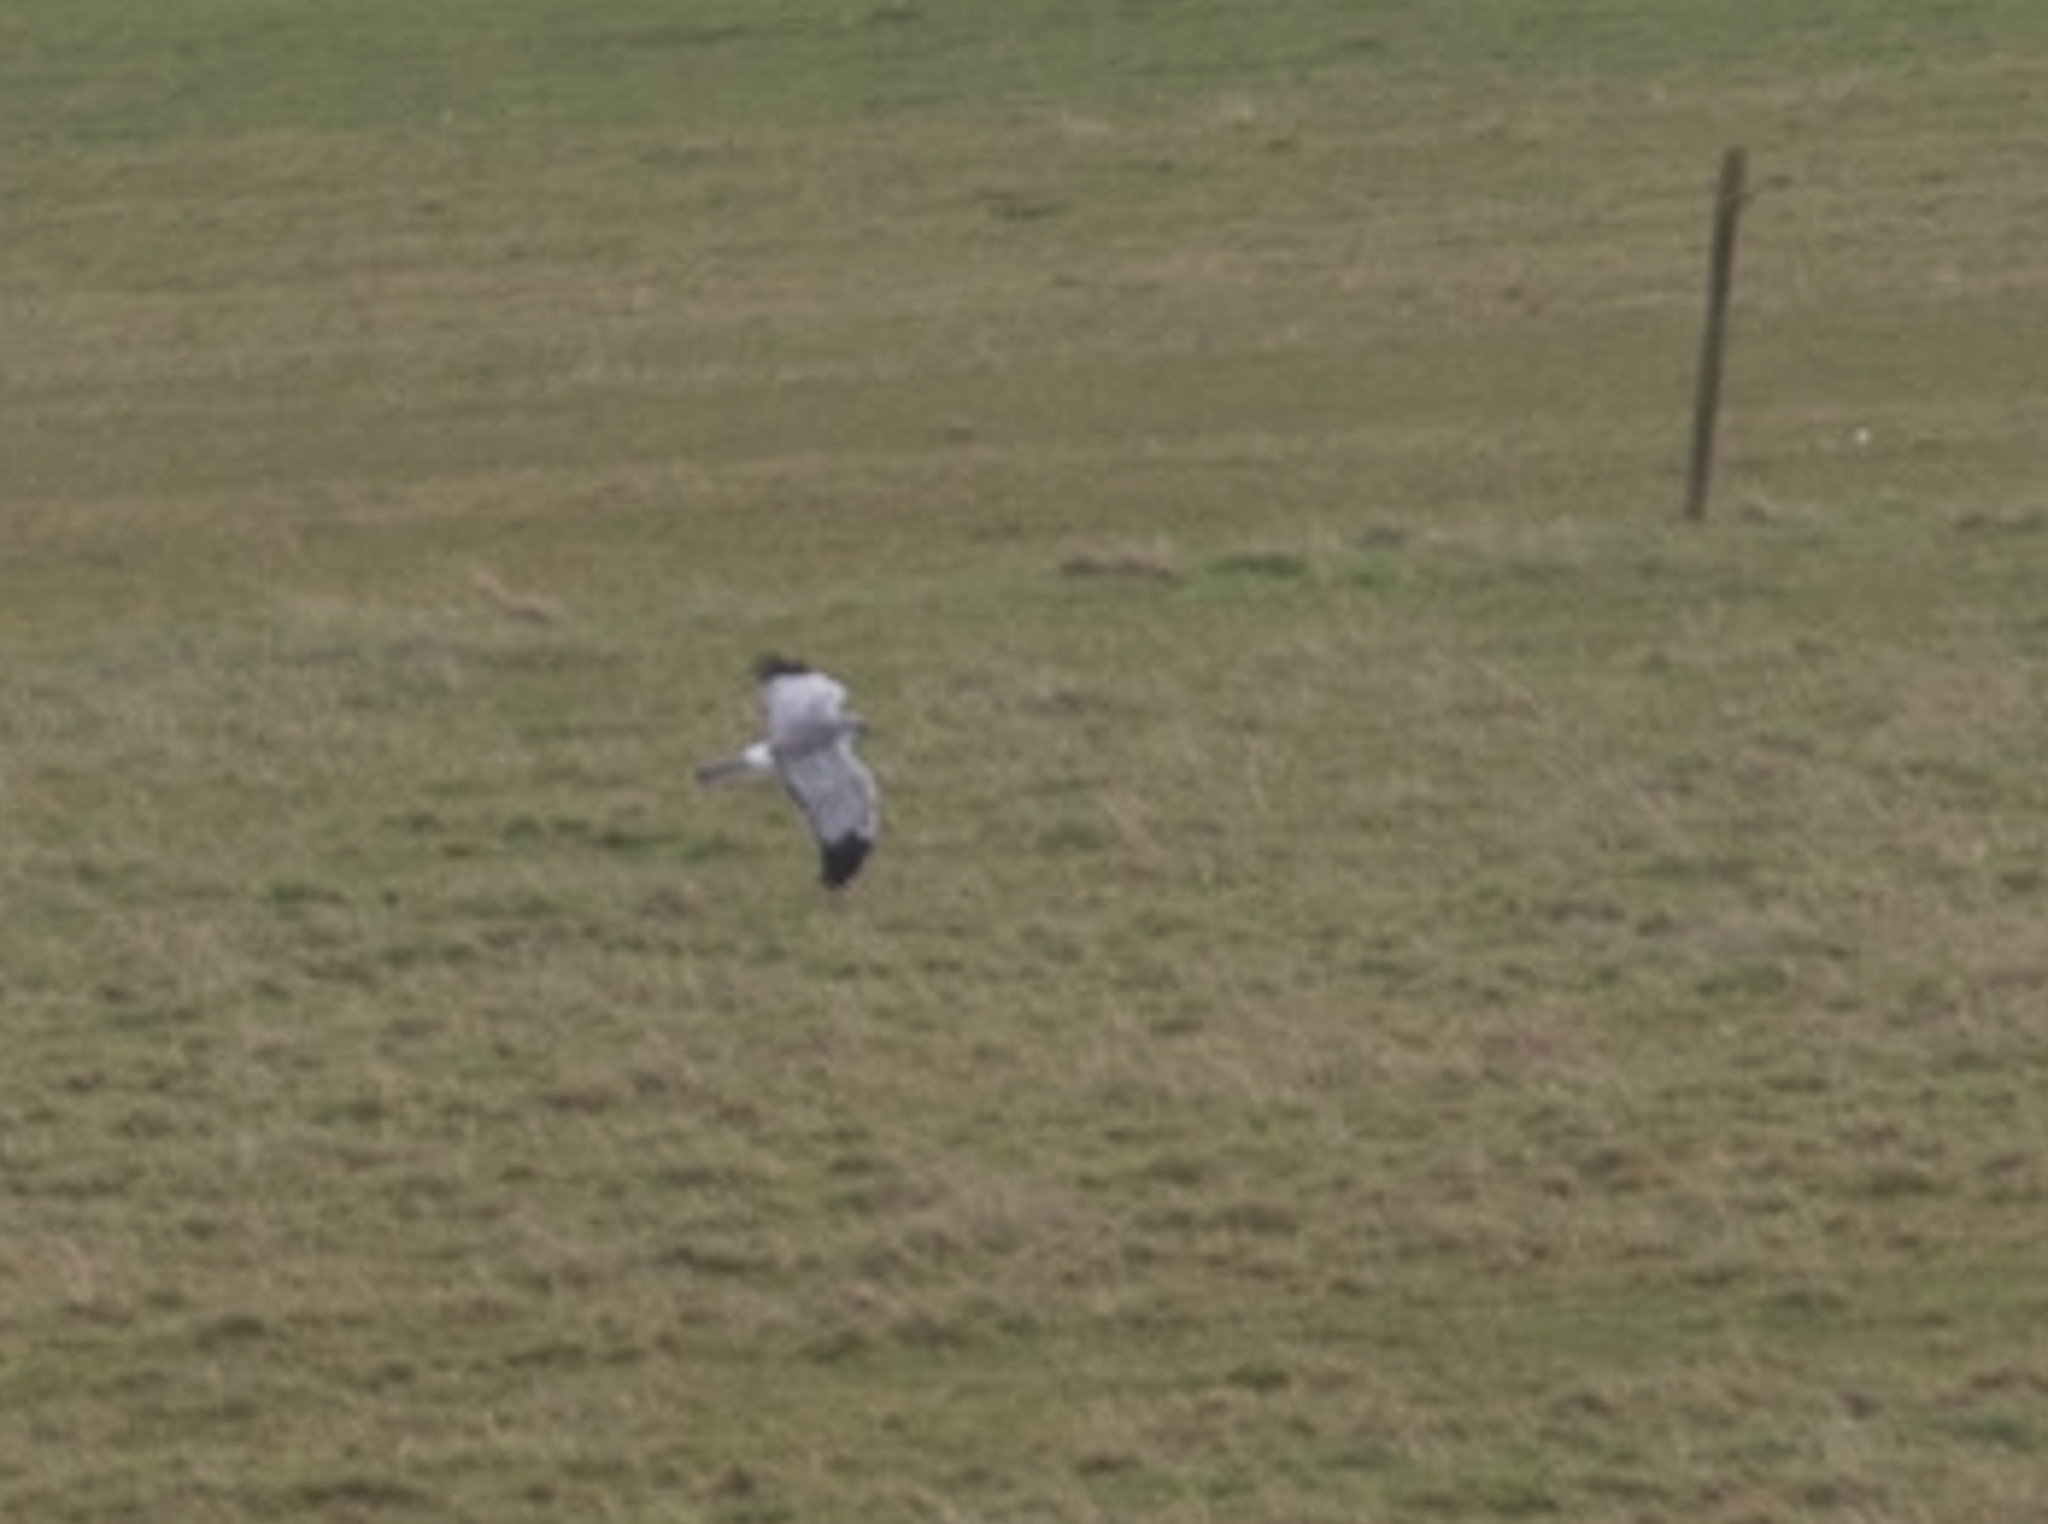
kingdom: Animalia
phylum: Chordata
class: Aves
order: Accipitriformes
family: Accipitridae
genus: Circus
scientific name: Circus cyaneus
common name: Hen harrier
